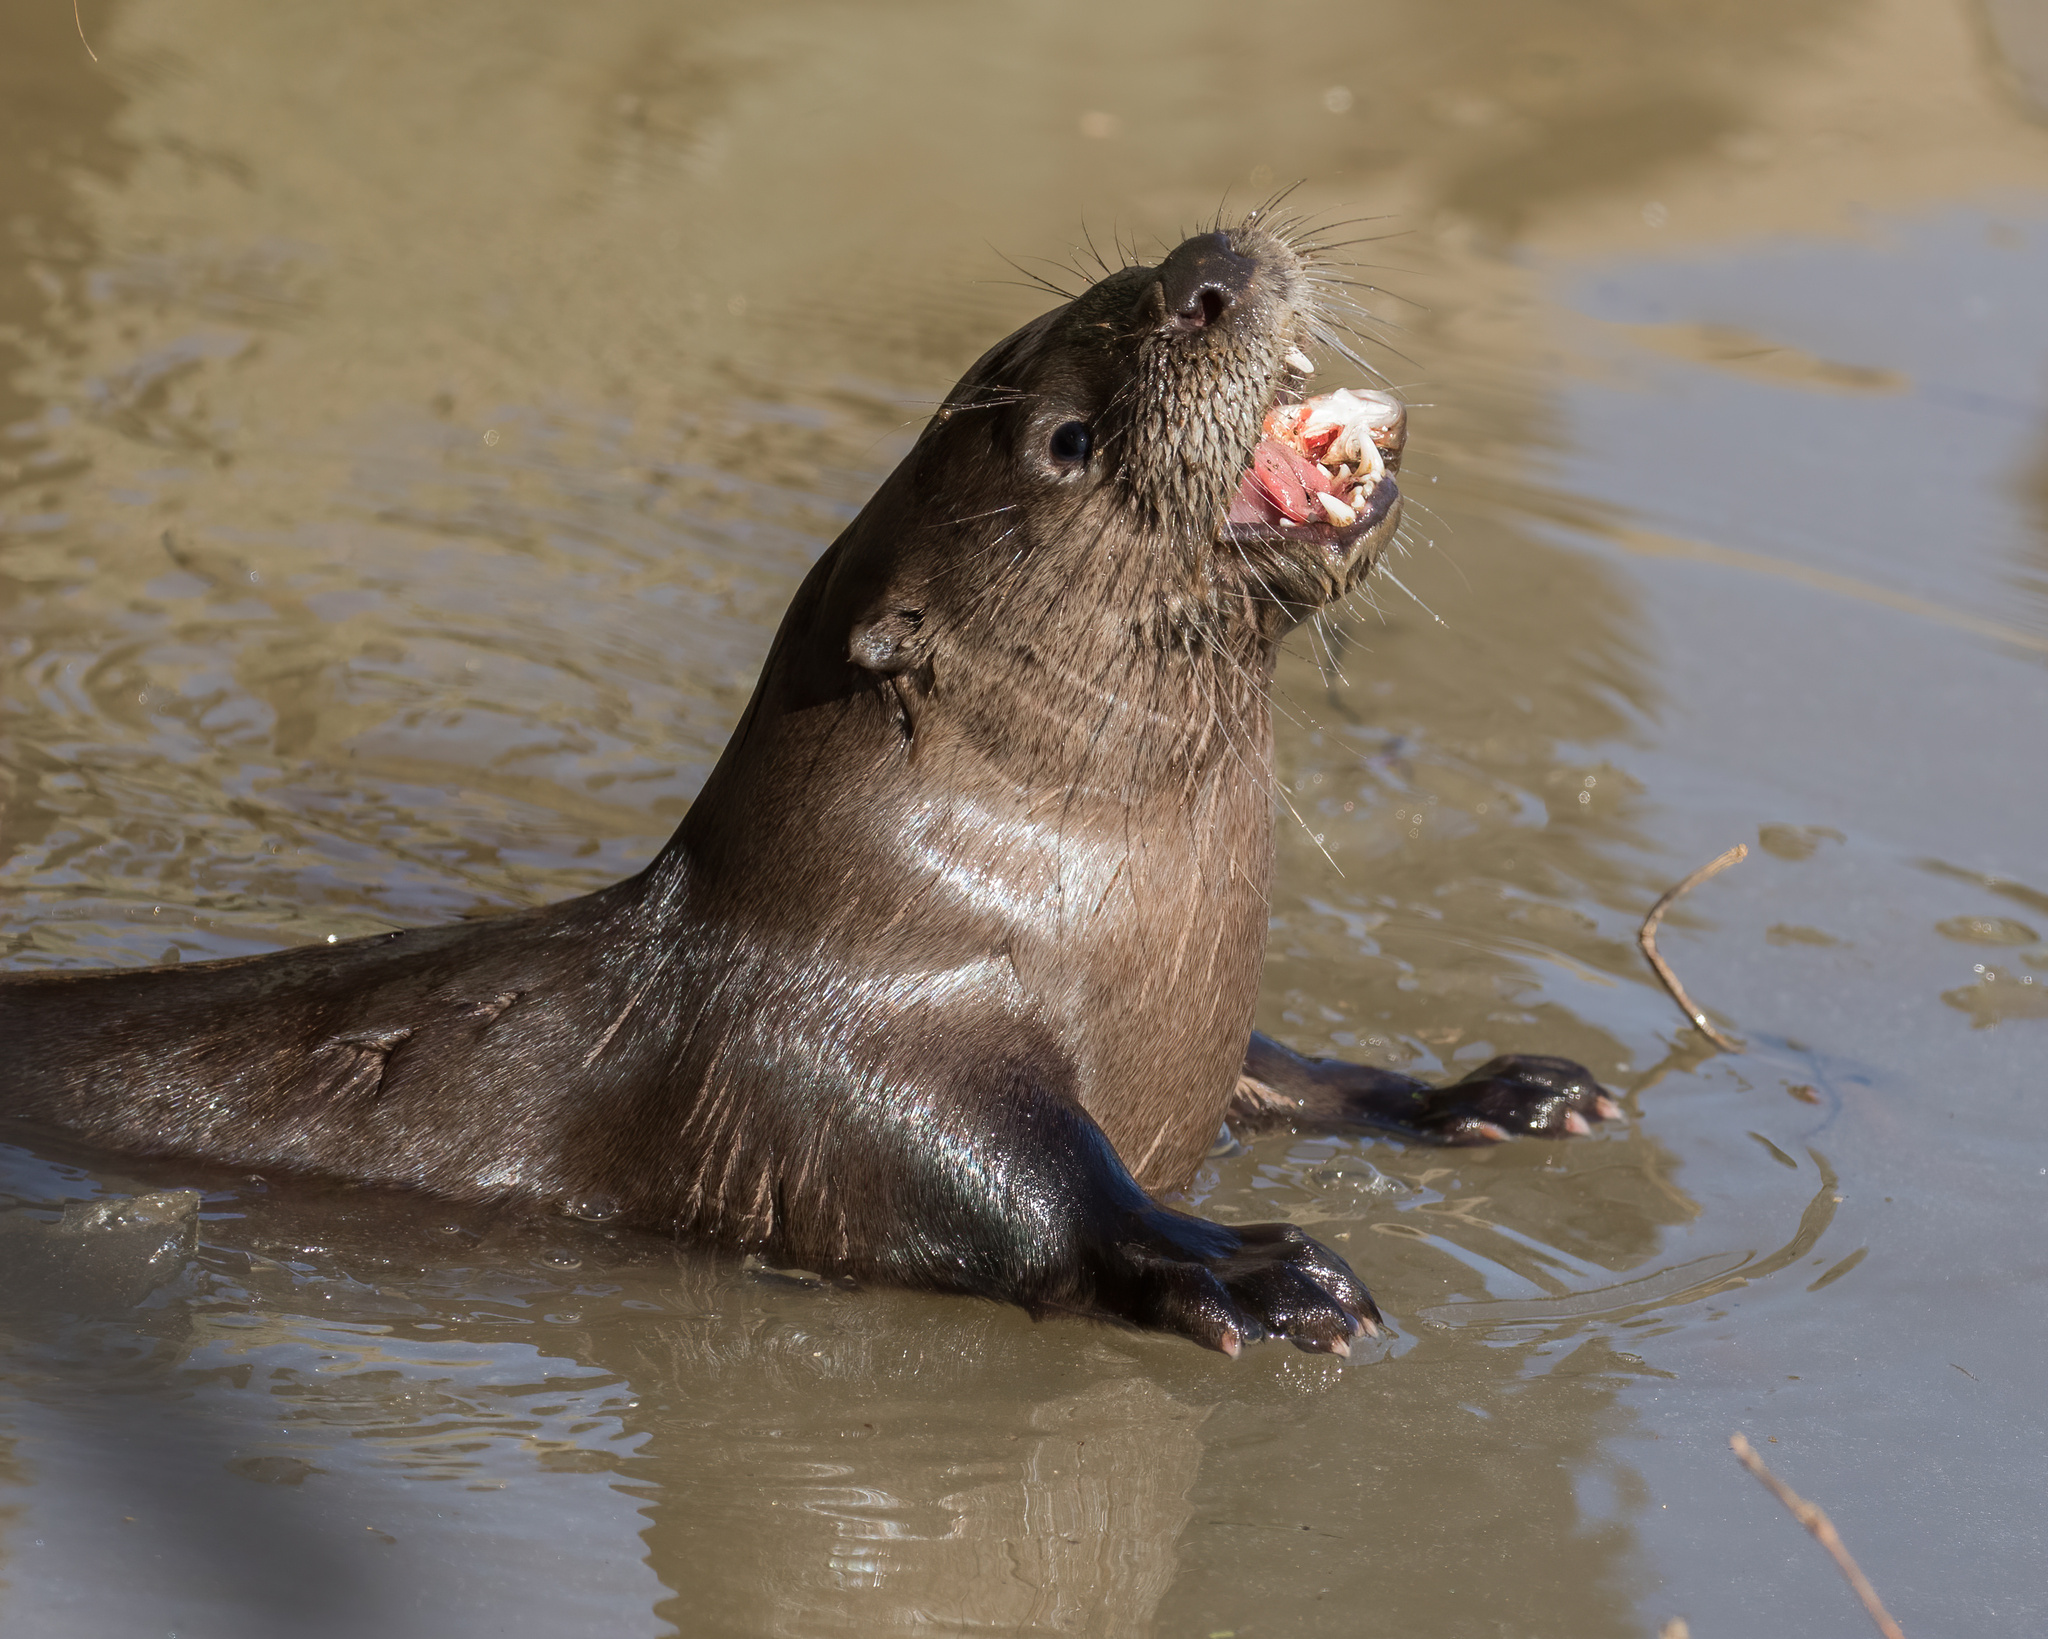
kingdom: Animalia
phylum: Chordata
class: Mammalia
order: Carnivora
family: Mustelidae
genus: Lontra
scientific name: Lontra canadensis
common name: North american river otter
